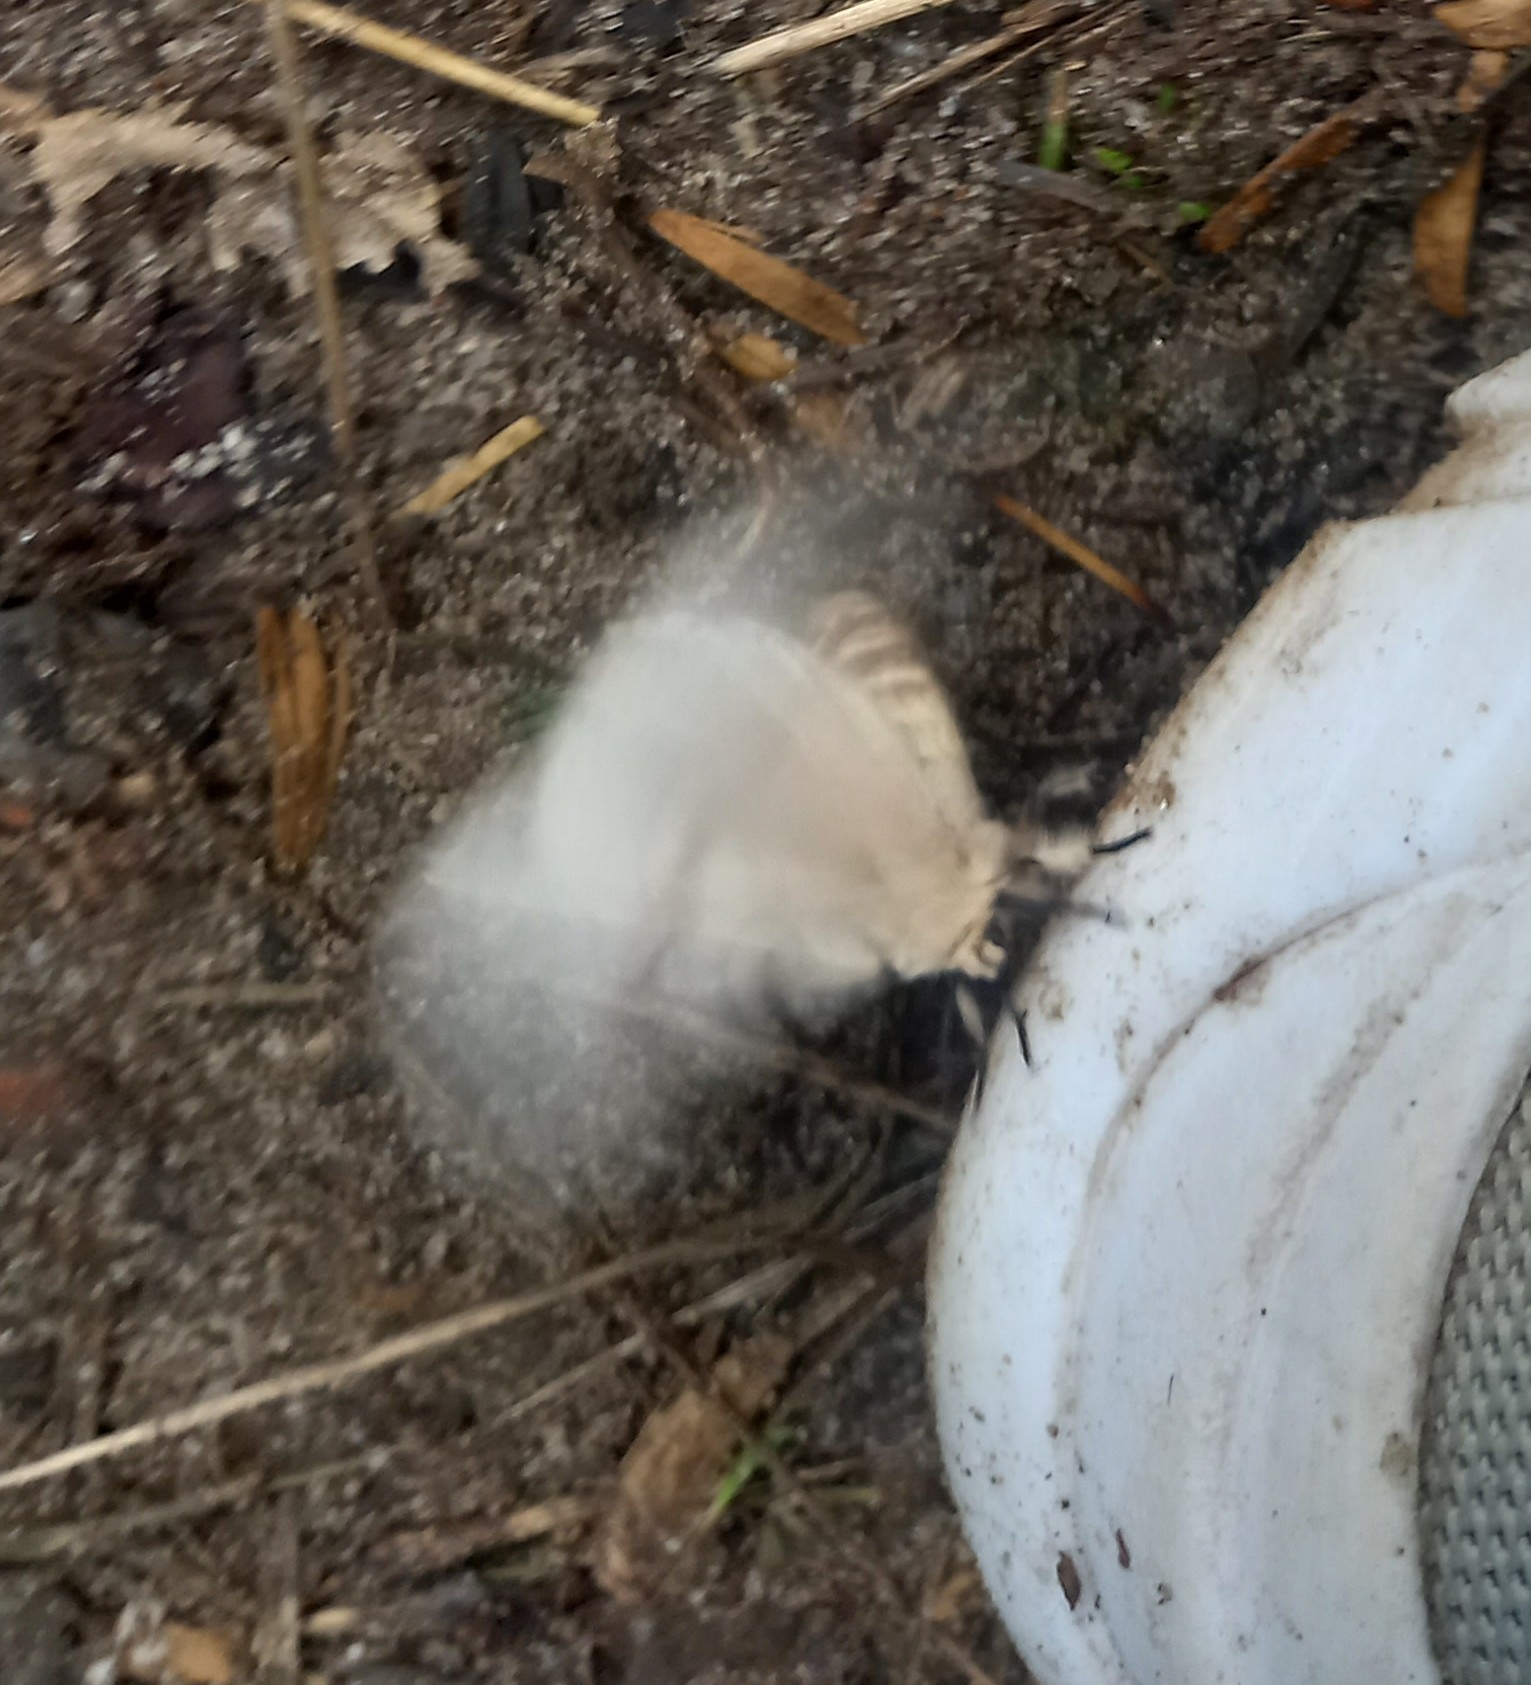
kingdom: Animalia
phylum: Arthropoda
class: Insecta
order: Lepidoptera
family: Erebidae
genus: Lymantria
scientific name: Lymantria dispar
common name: Gypsy moth
